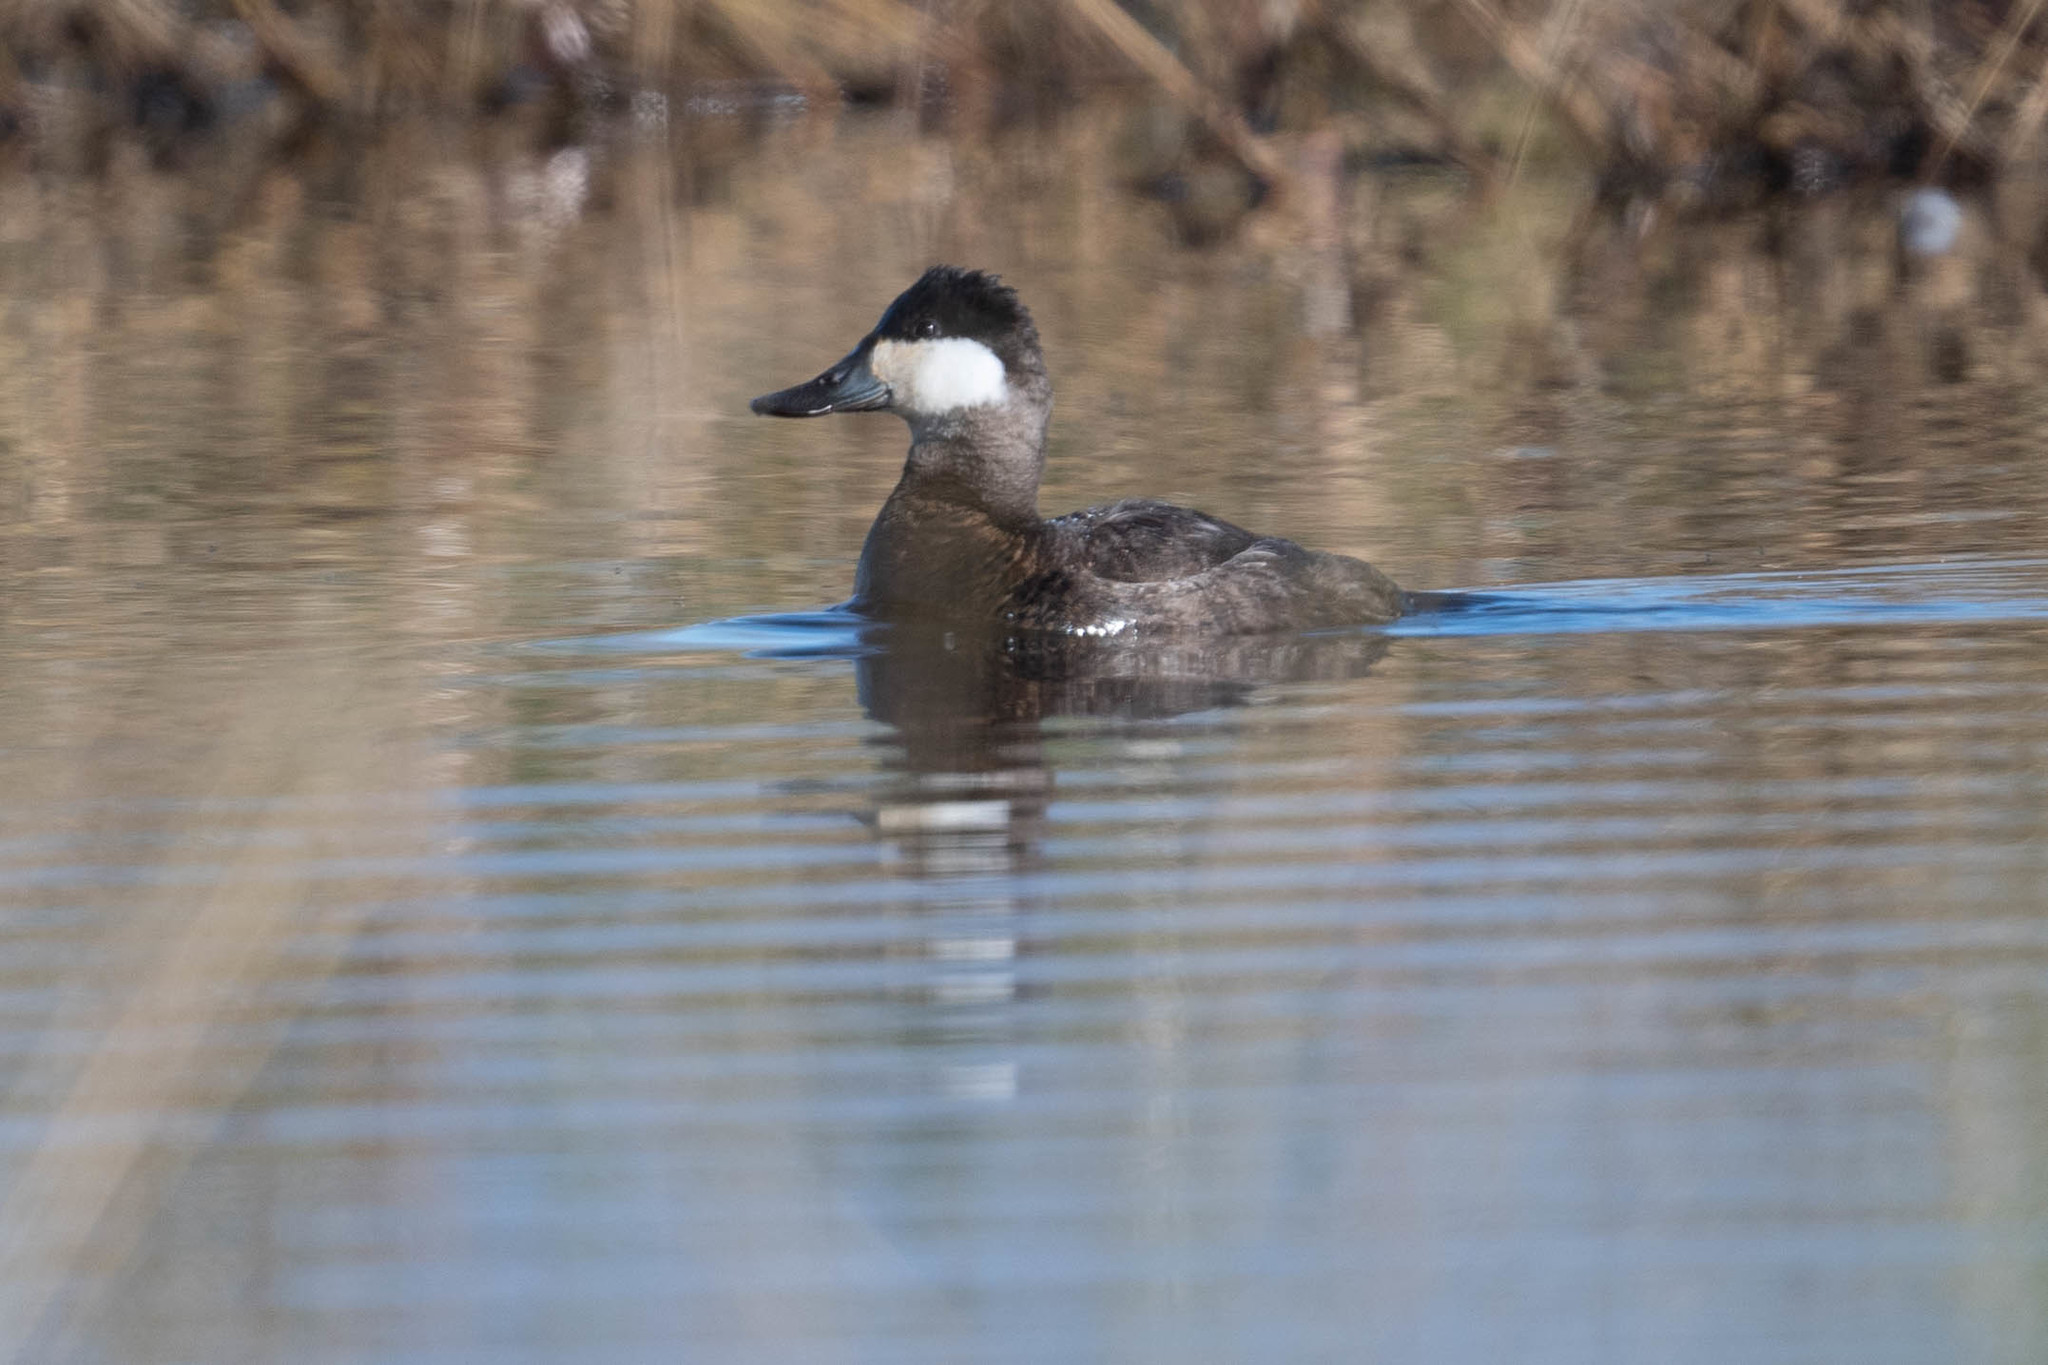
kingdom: Animalia
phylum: Chordata
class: Aves
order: Anseriformes
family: Anatidae
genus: Oxyura
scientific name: Oxyura jamaicensis
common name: Ruddy duck
